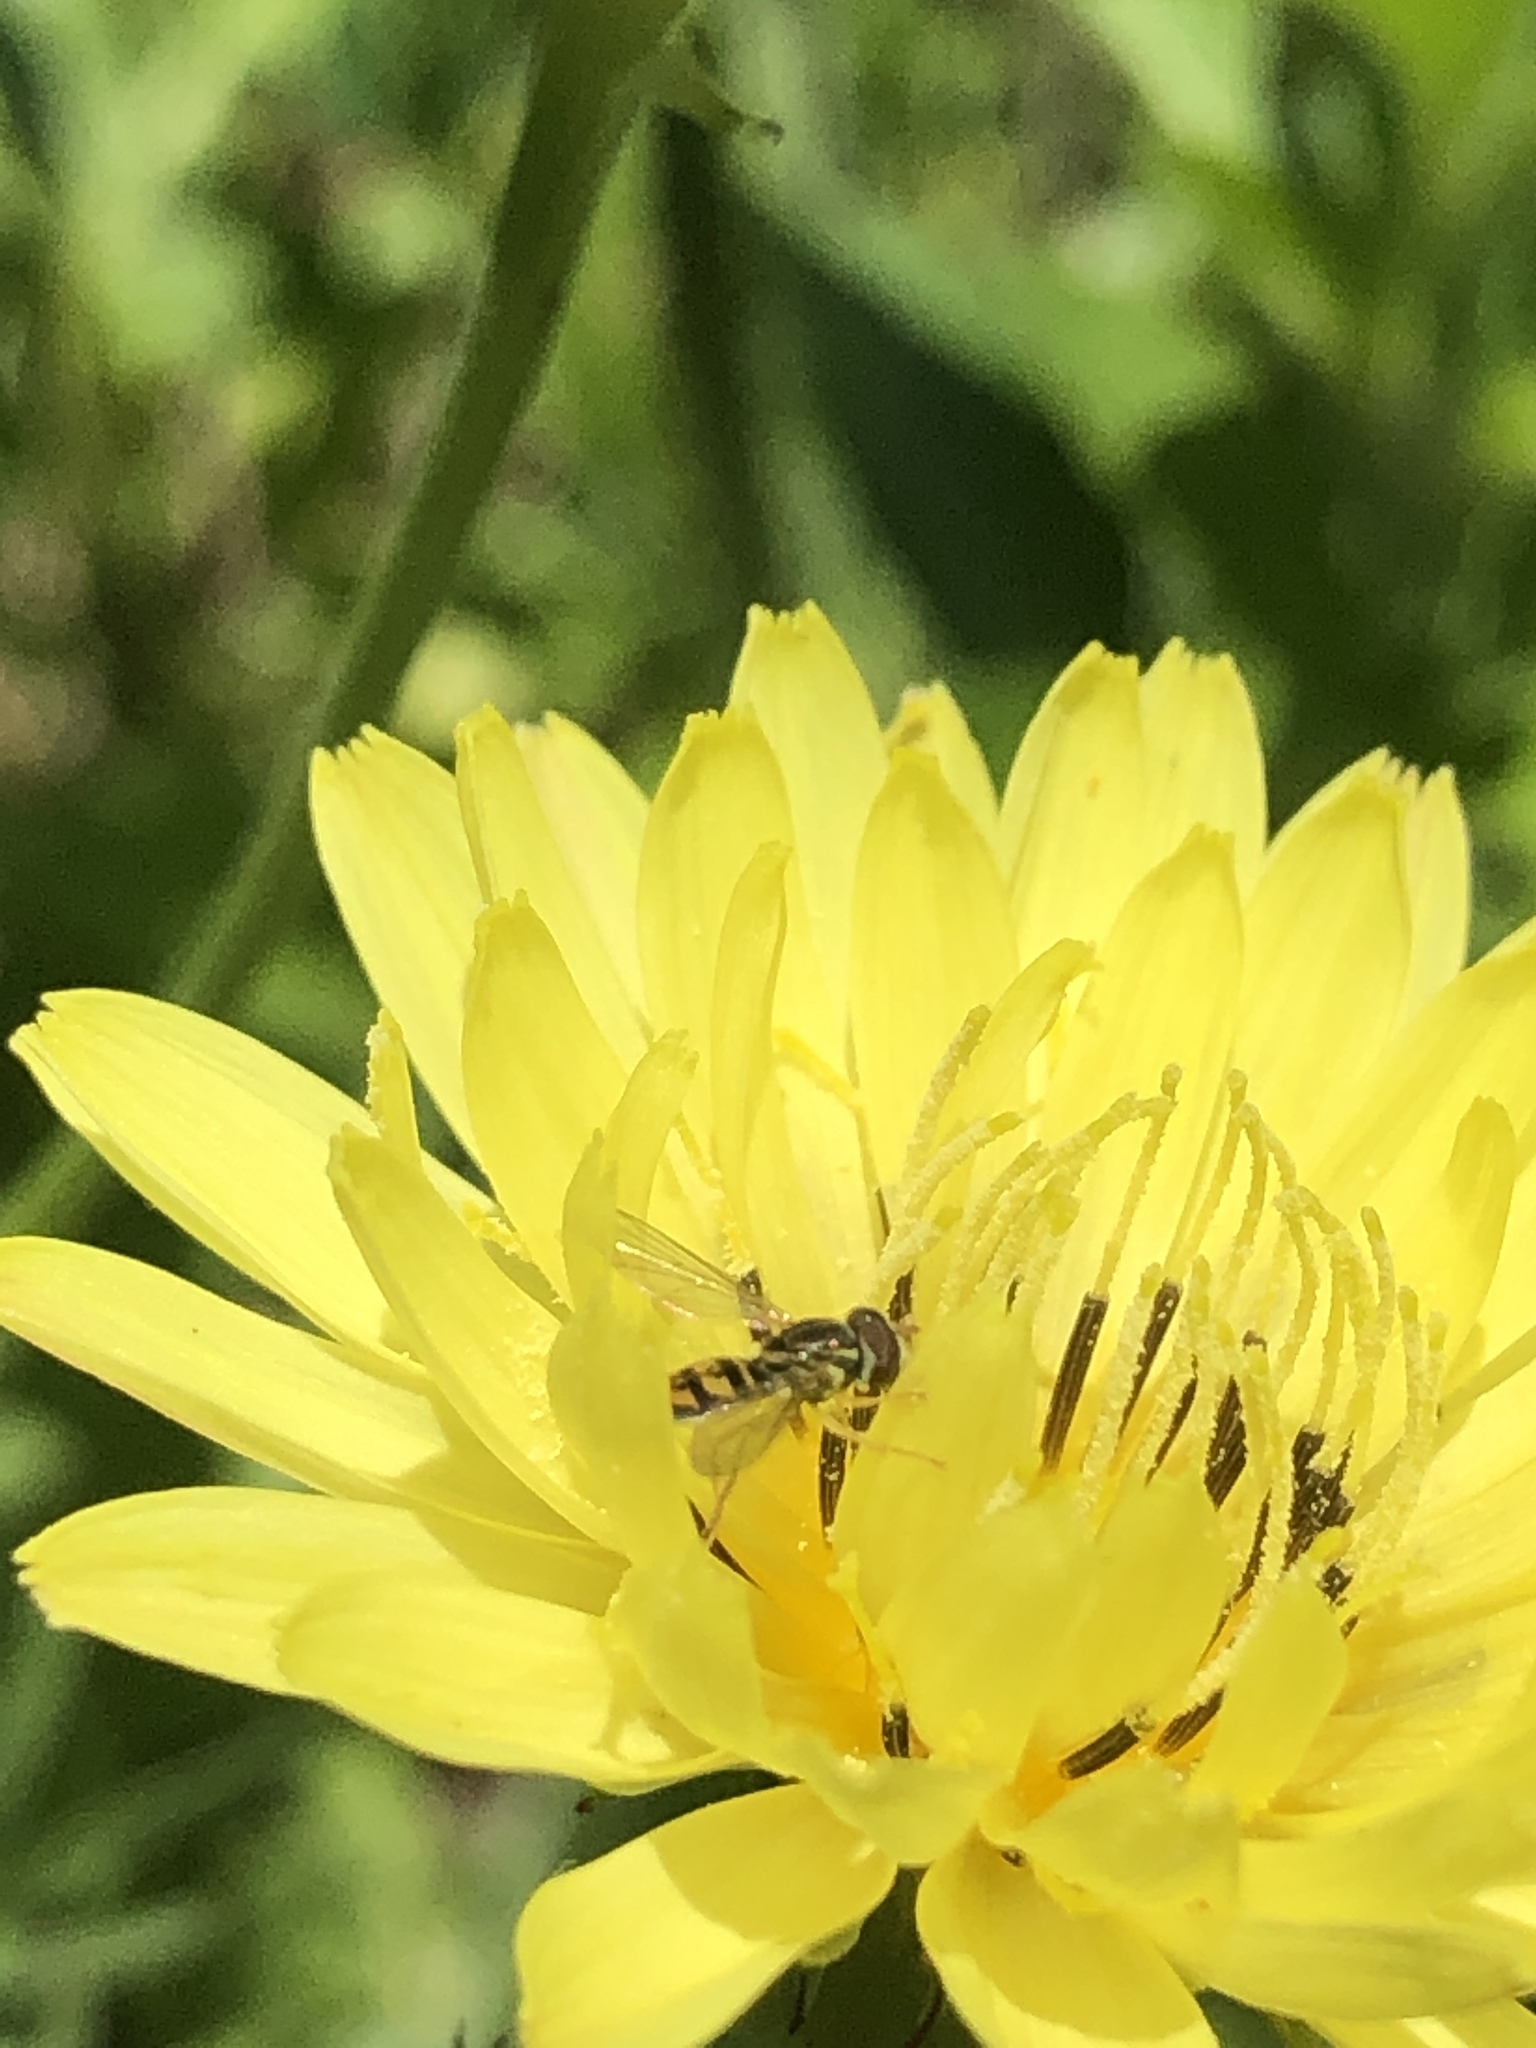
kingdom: Animalia
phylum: Arthropoda
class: Insecta
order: Diptera
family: Syrphidae
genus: Toxomerus
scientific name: Toxomerus marginatus
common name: Syrphid fly
